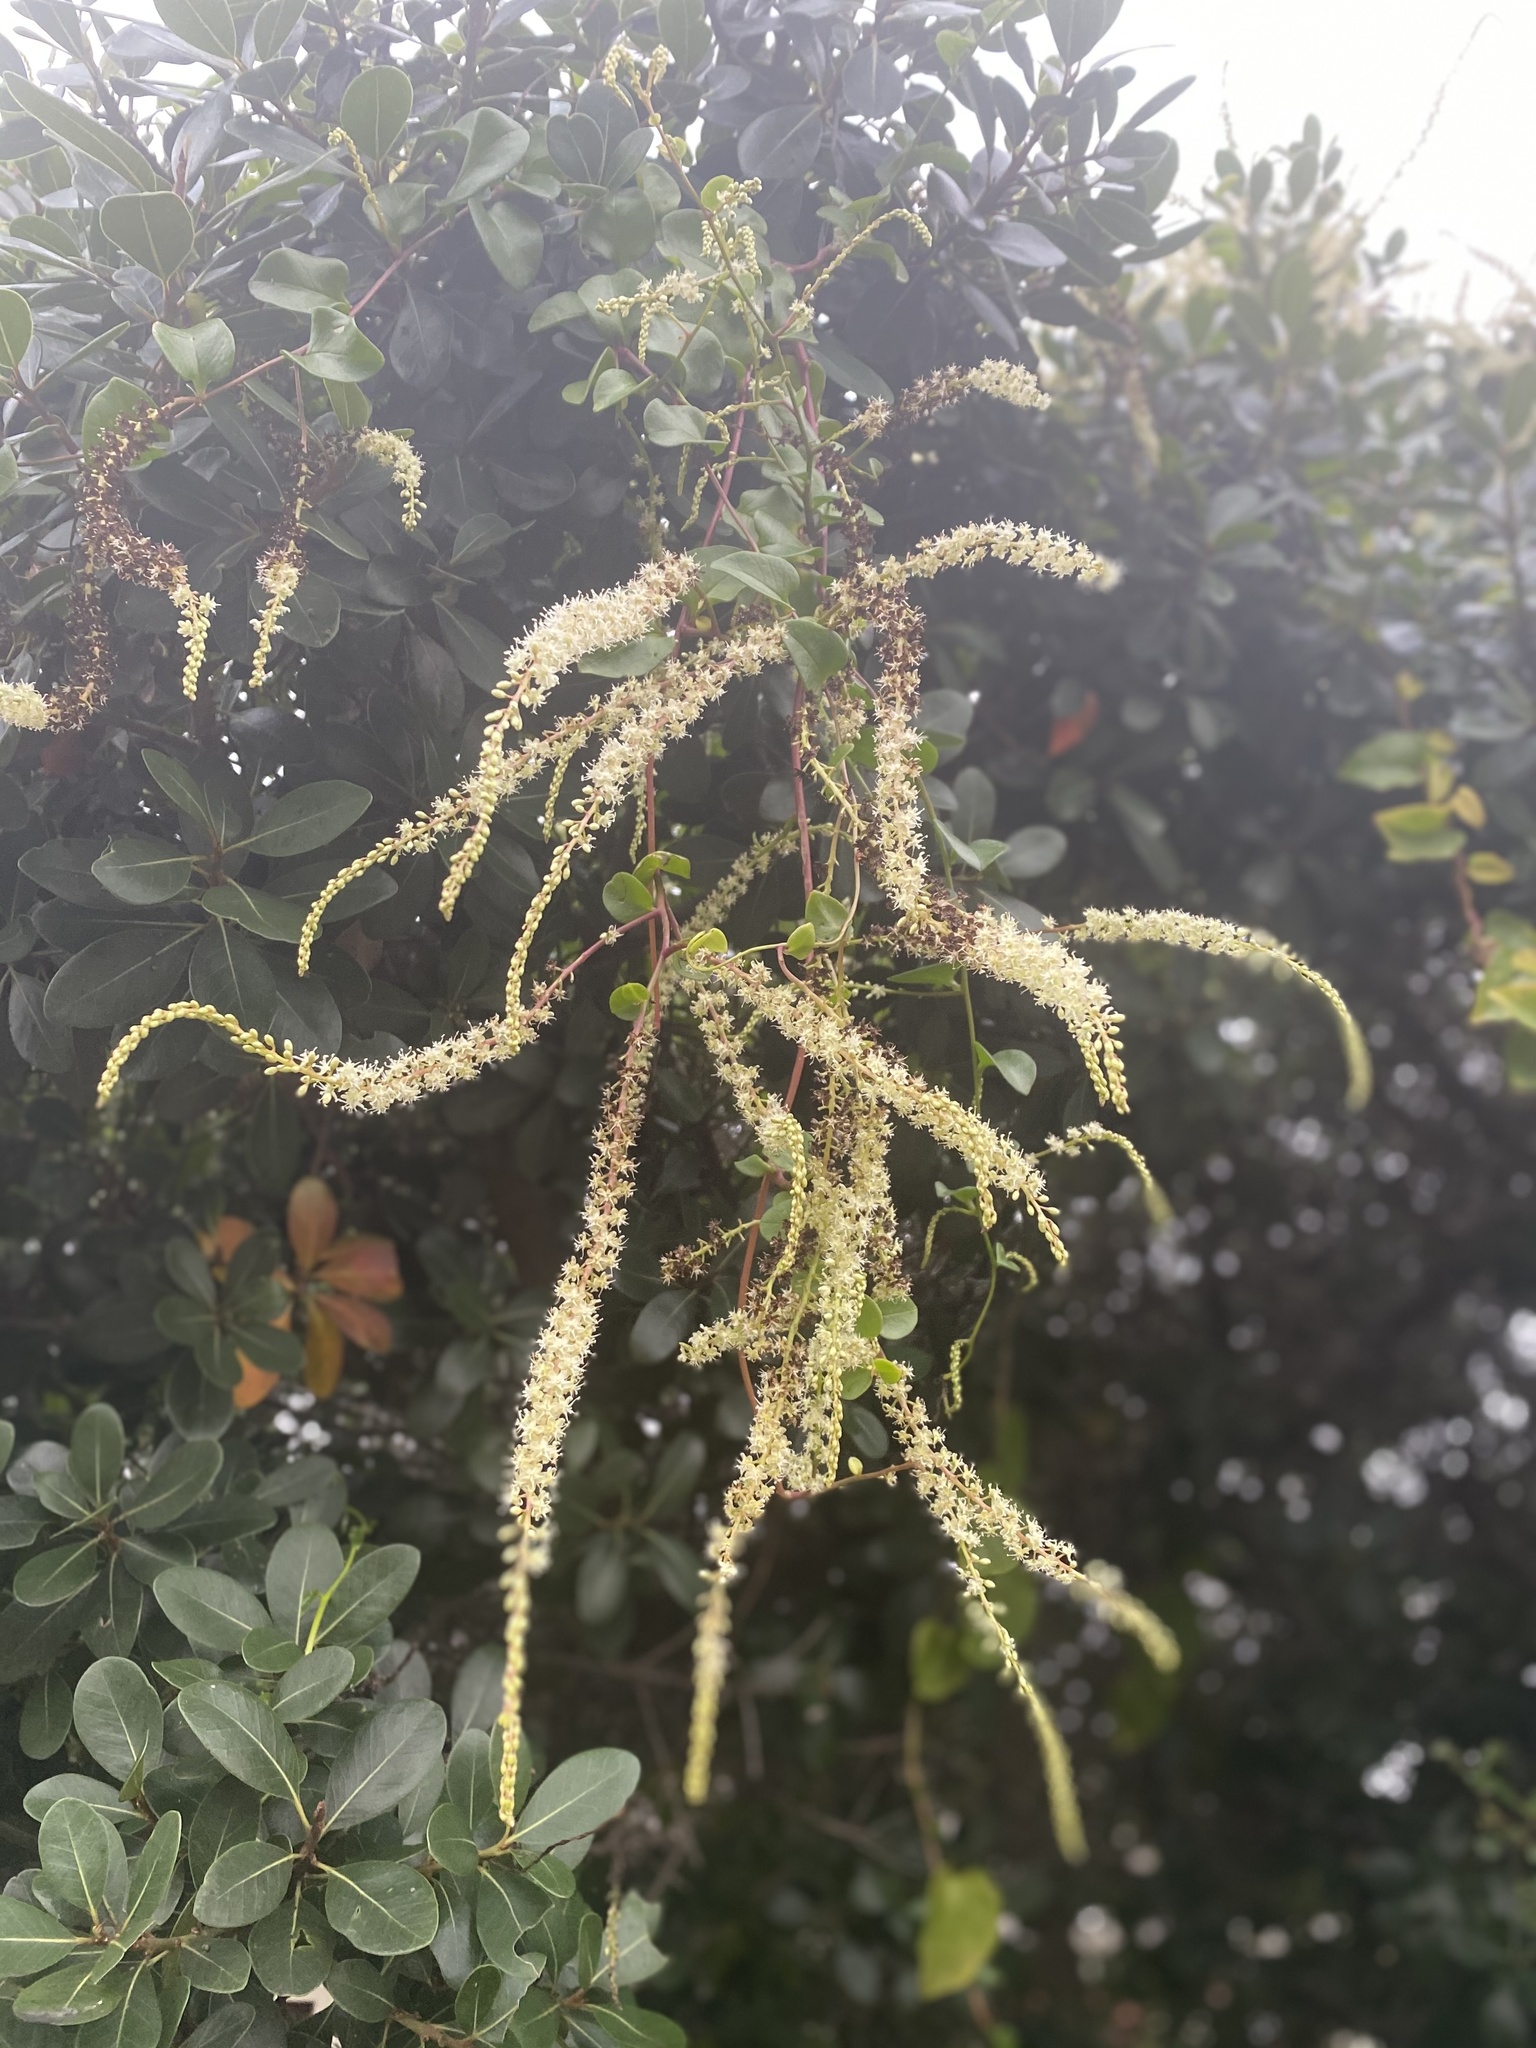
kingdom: Plantae
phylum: Tracheophyta
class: Magnoliopsida
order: Caryophyllales
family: Basellaceae
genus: Anredera
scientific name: Anredera cordifolia
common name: Heartleaf madeiravine
